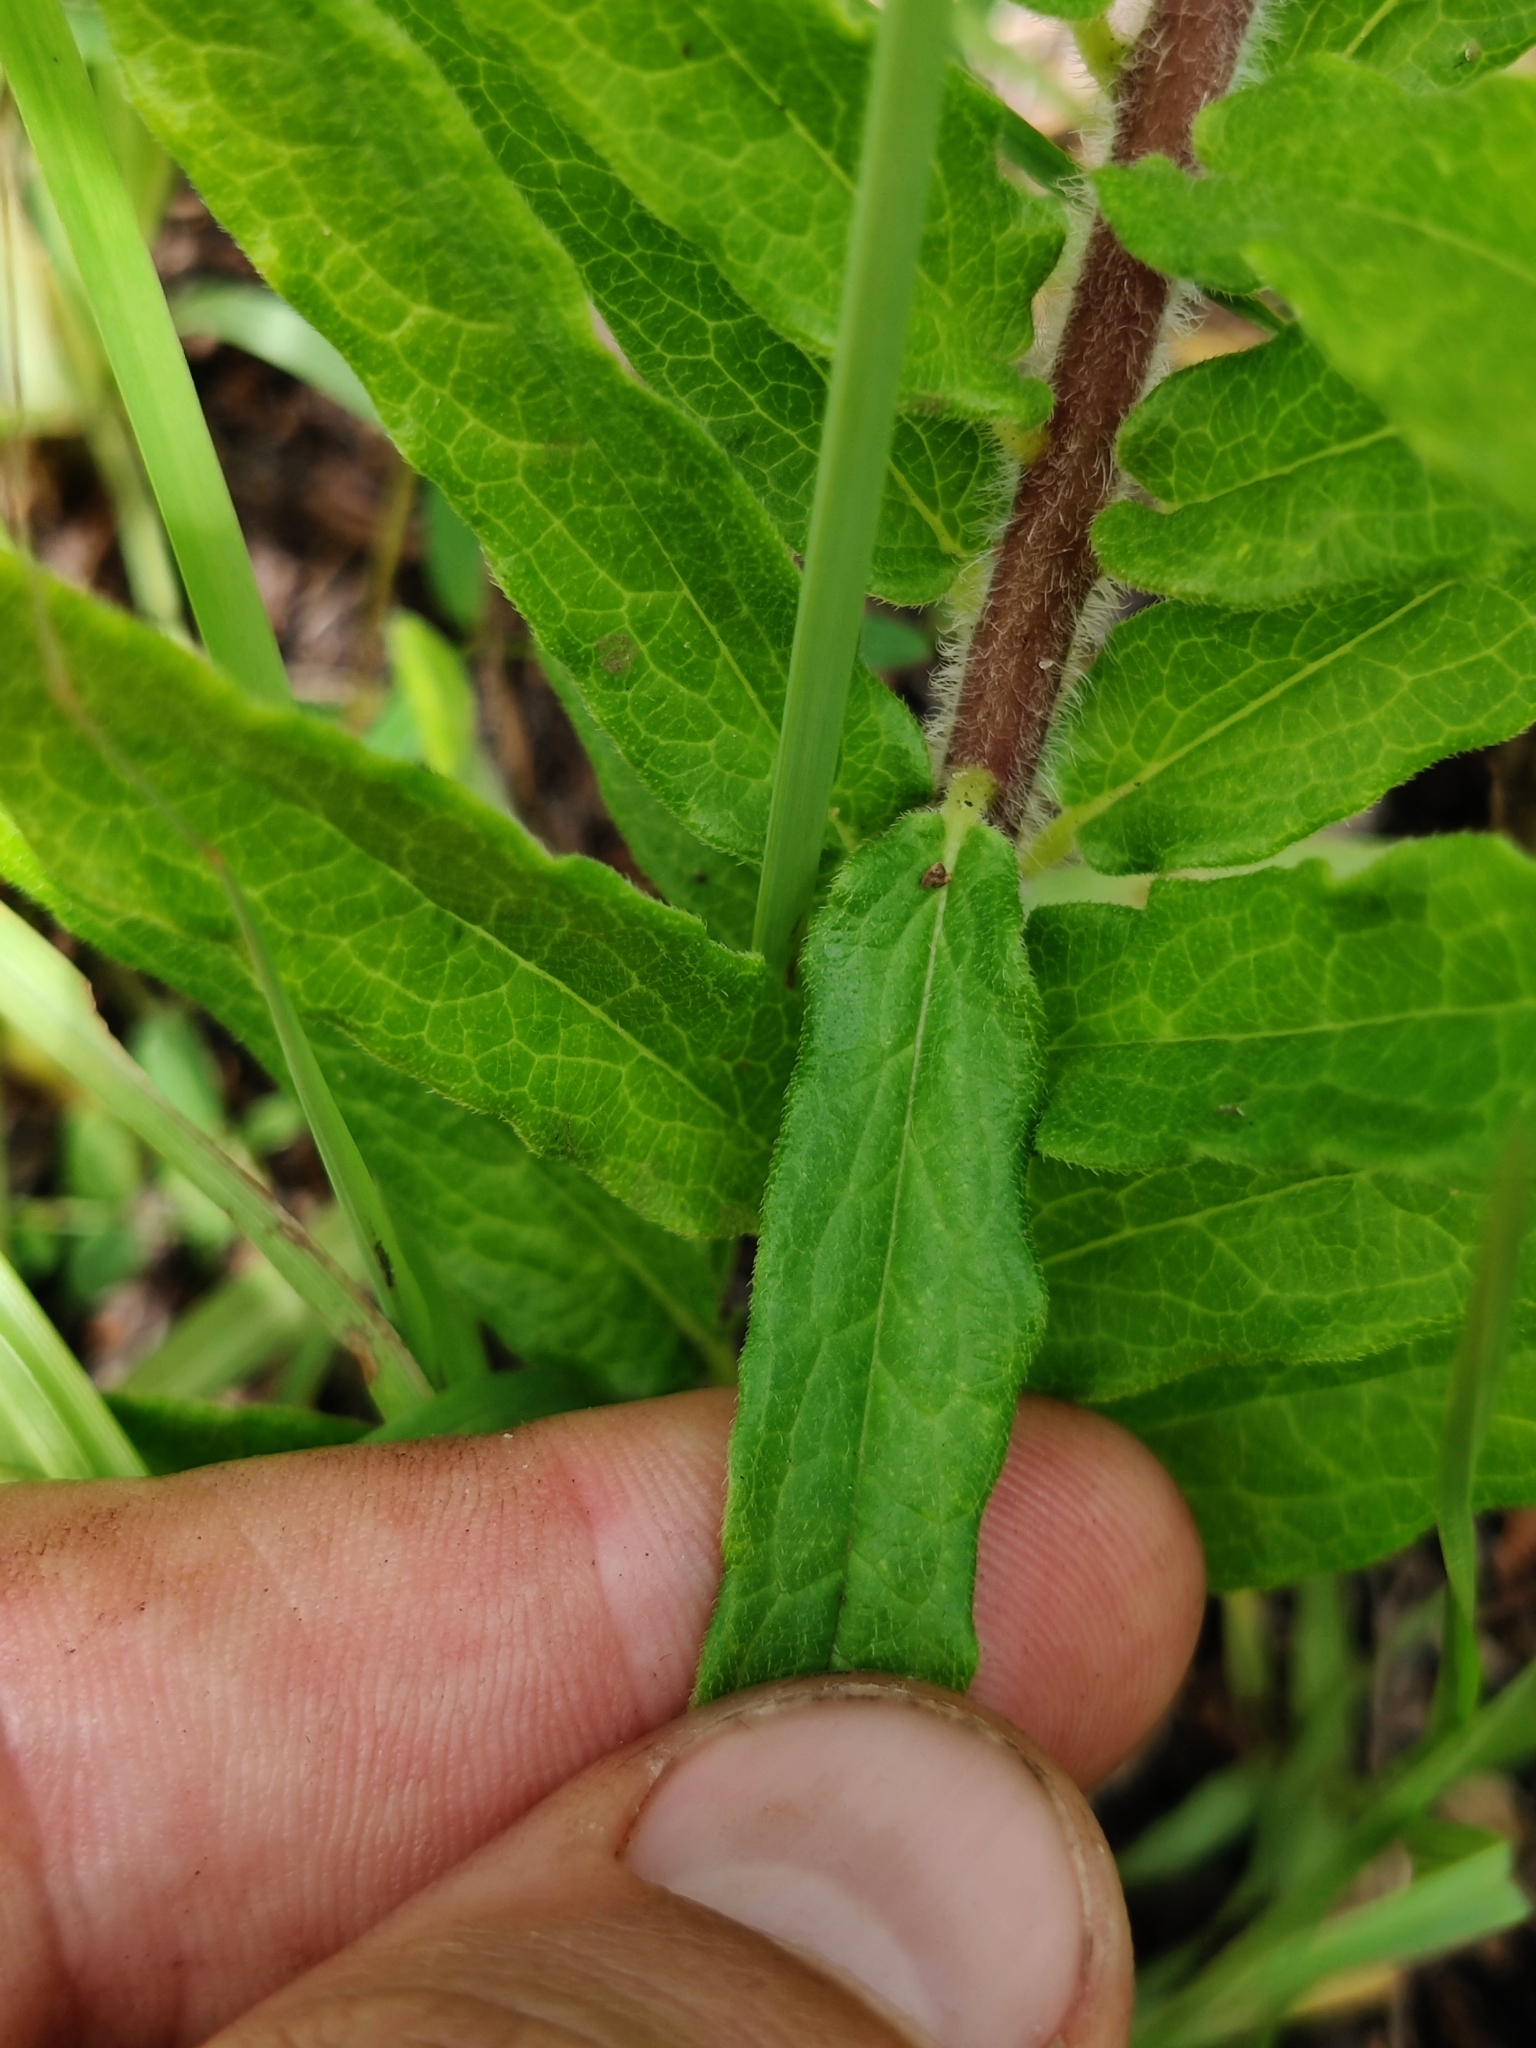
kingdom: Plantae
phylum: Tracheophyta
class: Magnoliopsida
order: Gentianales
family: Apocynaceae
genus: Asclepias
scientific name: Asclepias tuberosa
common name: Butterfly milkweed
